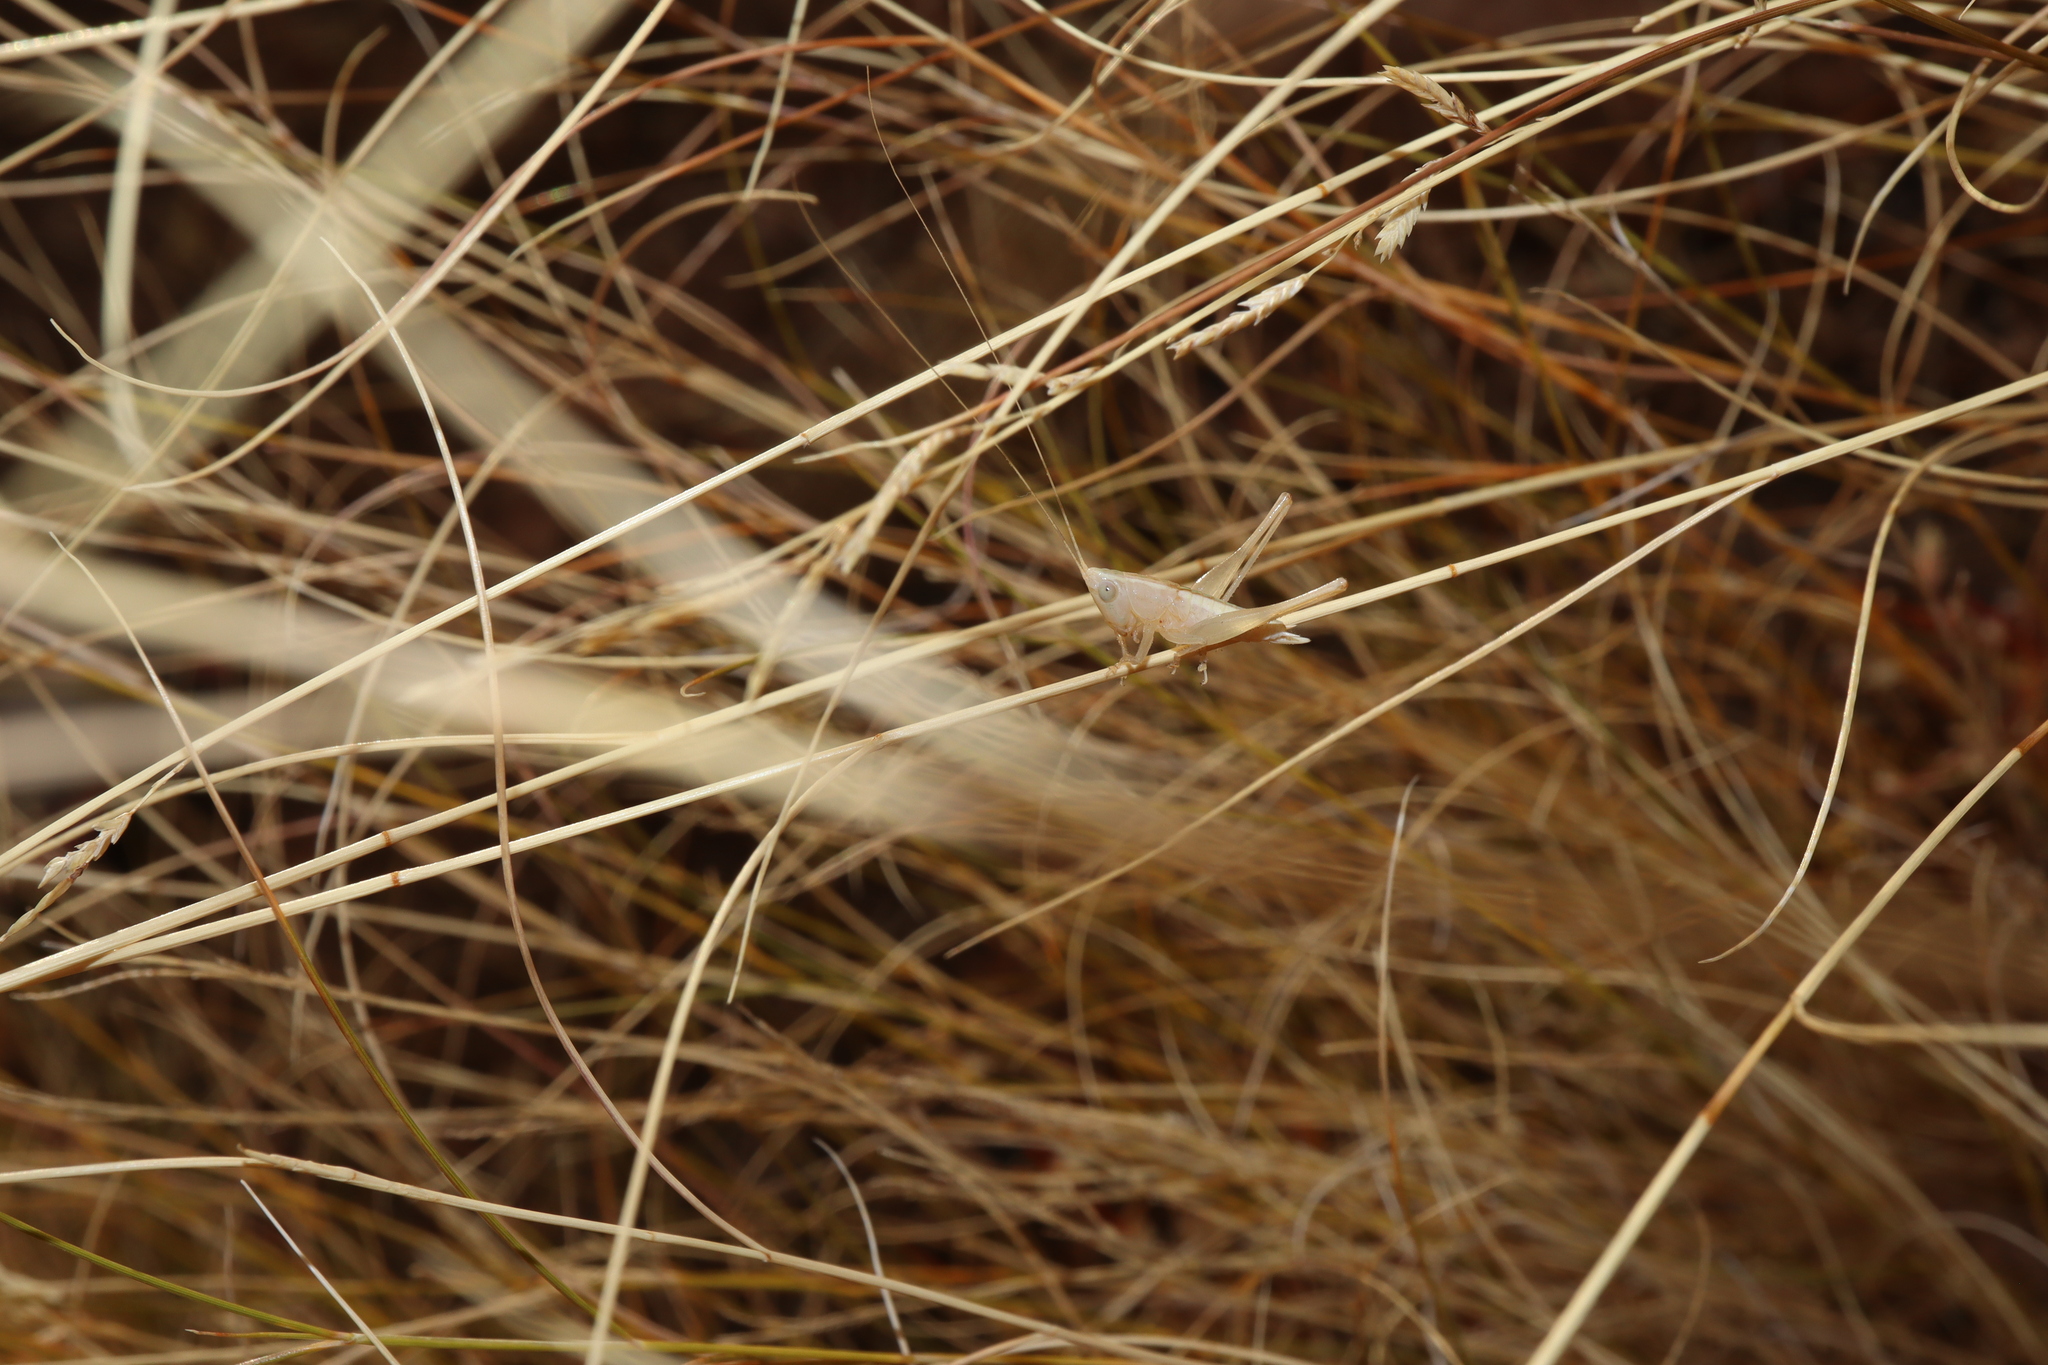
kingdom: Animalia
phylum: Arthropoda
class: Insecta
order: Orthoptera
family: Tettigoniidae
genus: Conocephalus
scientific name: Conocephalus upoluensis
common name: Upolu meadow katydid
